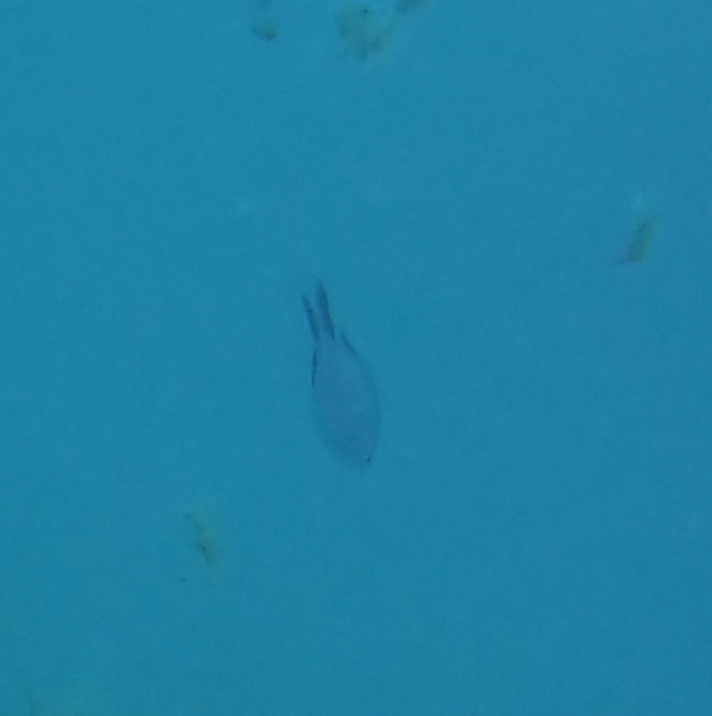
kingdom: Animalia
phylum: Chordata
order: Perciformes
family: Pomacentridae
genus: Chromis
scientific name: Chromis chromis
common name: Damselfish
